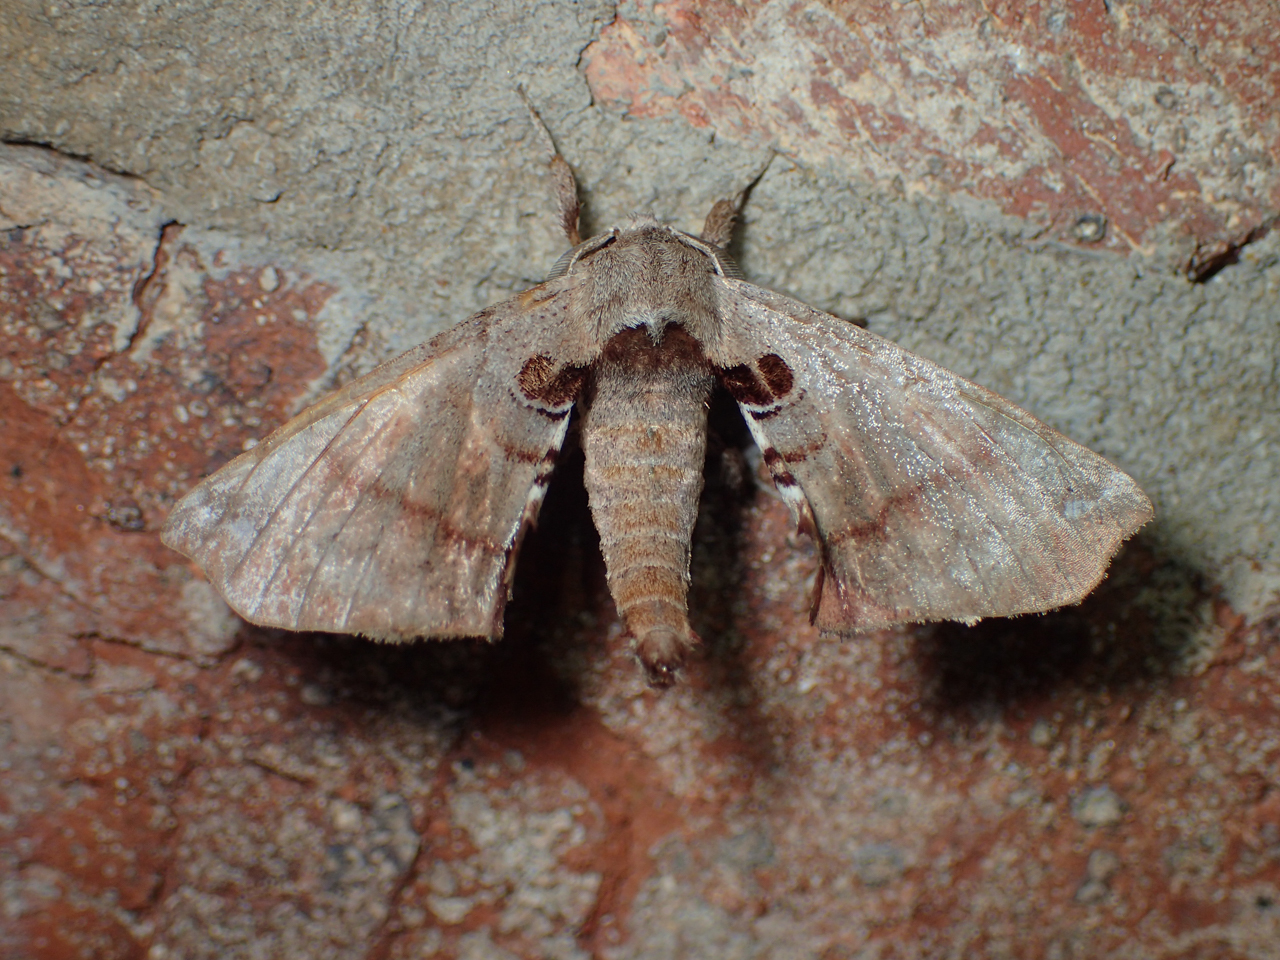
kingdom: Animalia
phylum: Arthropoda
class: Insecta
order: Lepidoptera
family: Apatelodidae
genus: Hygrochroa
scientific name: Hygrochroa Apatelodes torrefacta
